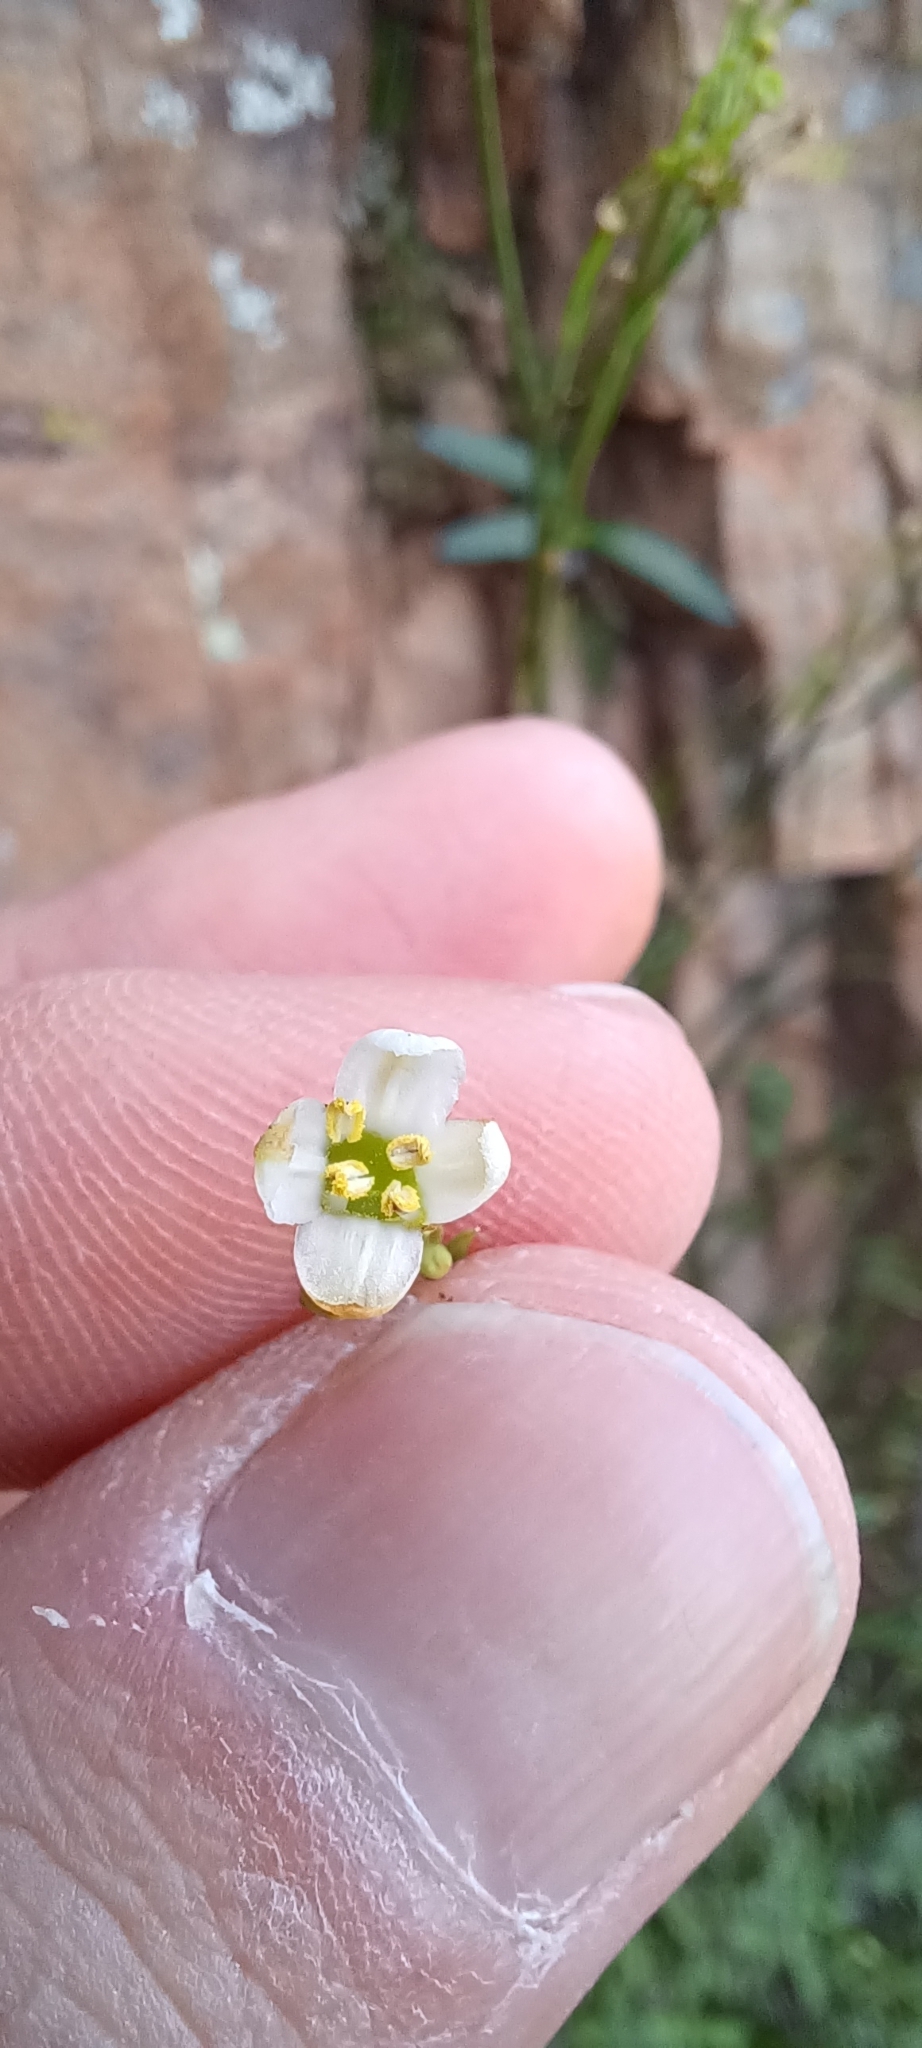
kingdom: Plantae
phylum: Tracheophyta
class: Magnoliopsida
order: Solanales
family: Montiniaceae
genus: Montinia
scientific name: Montinia caryophyllacea
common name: Wild clove-bush
